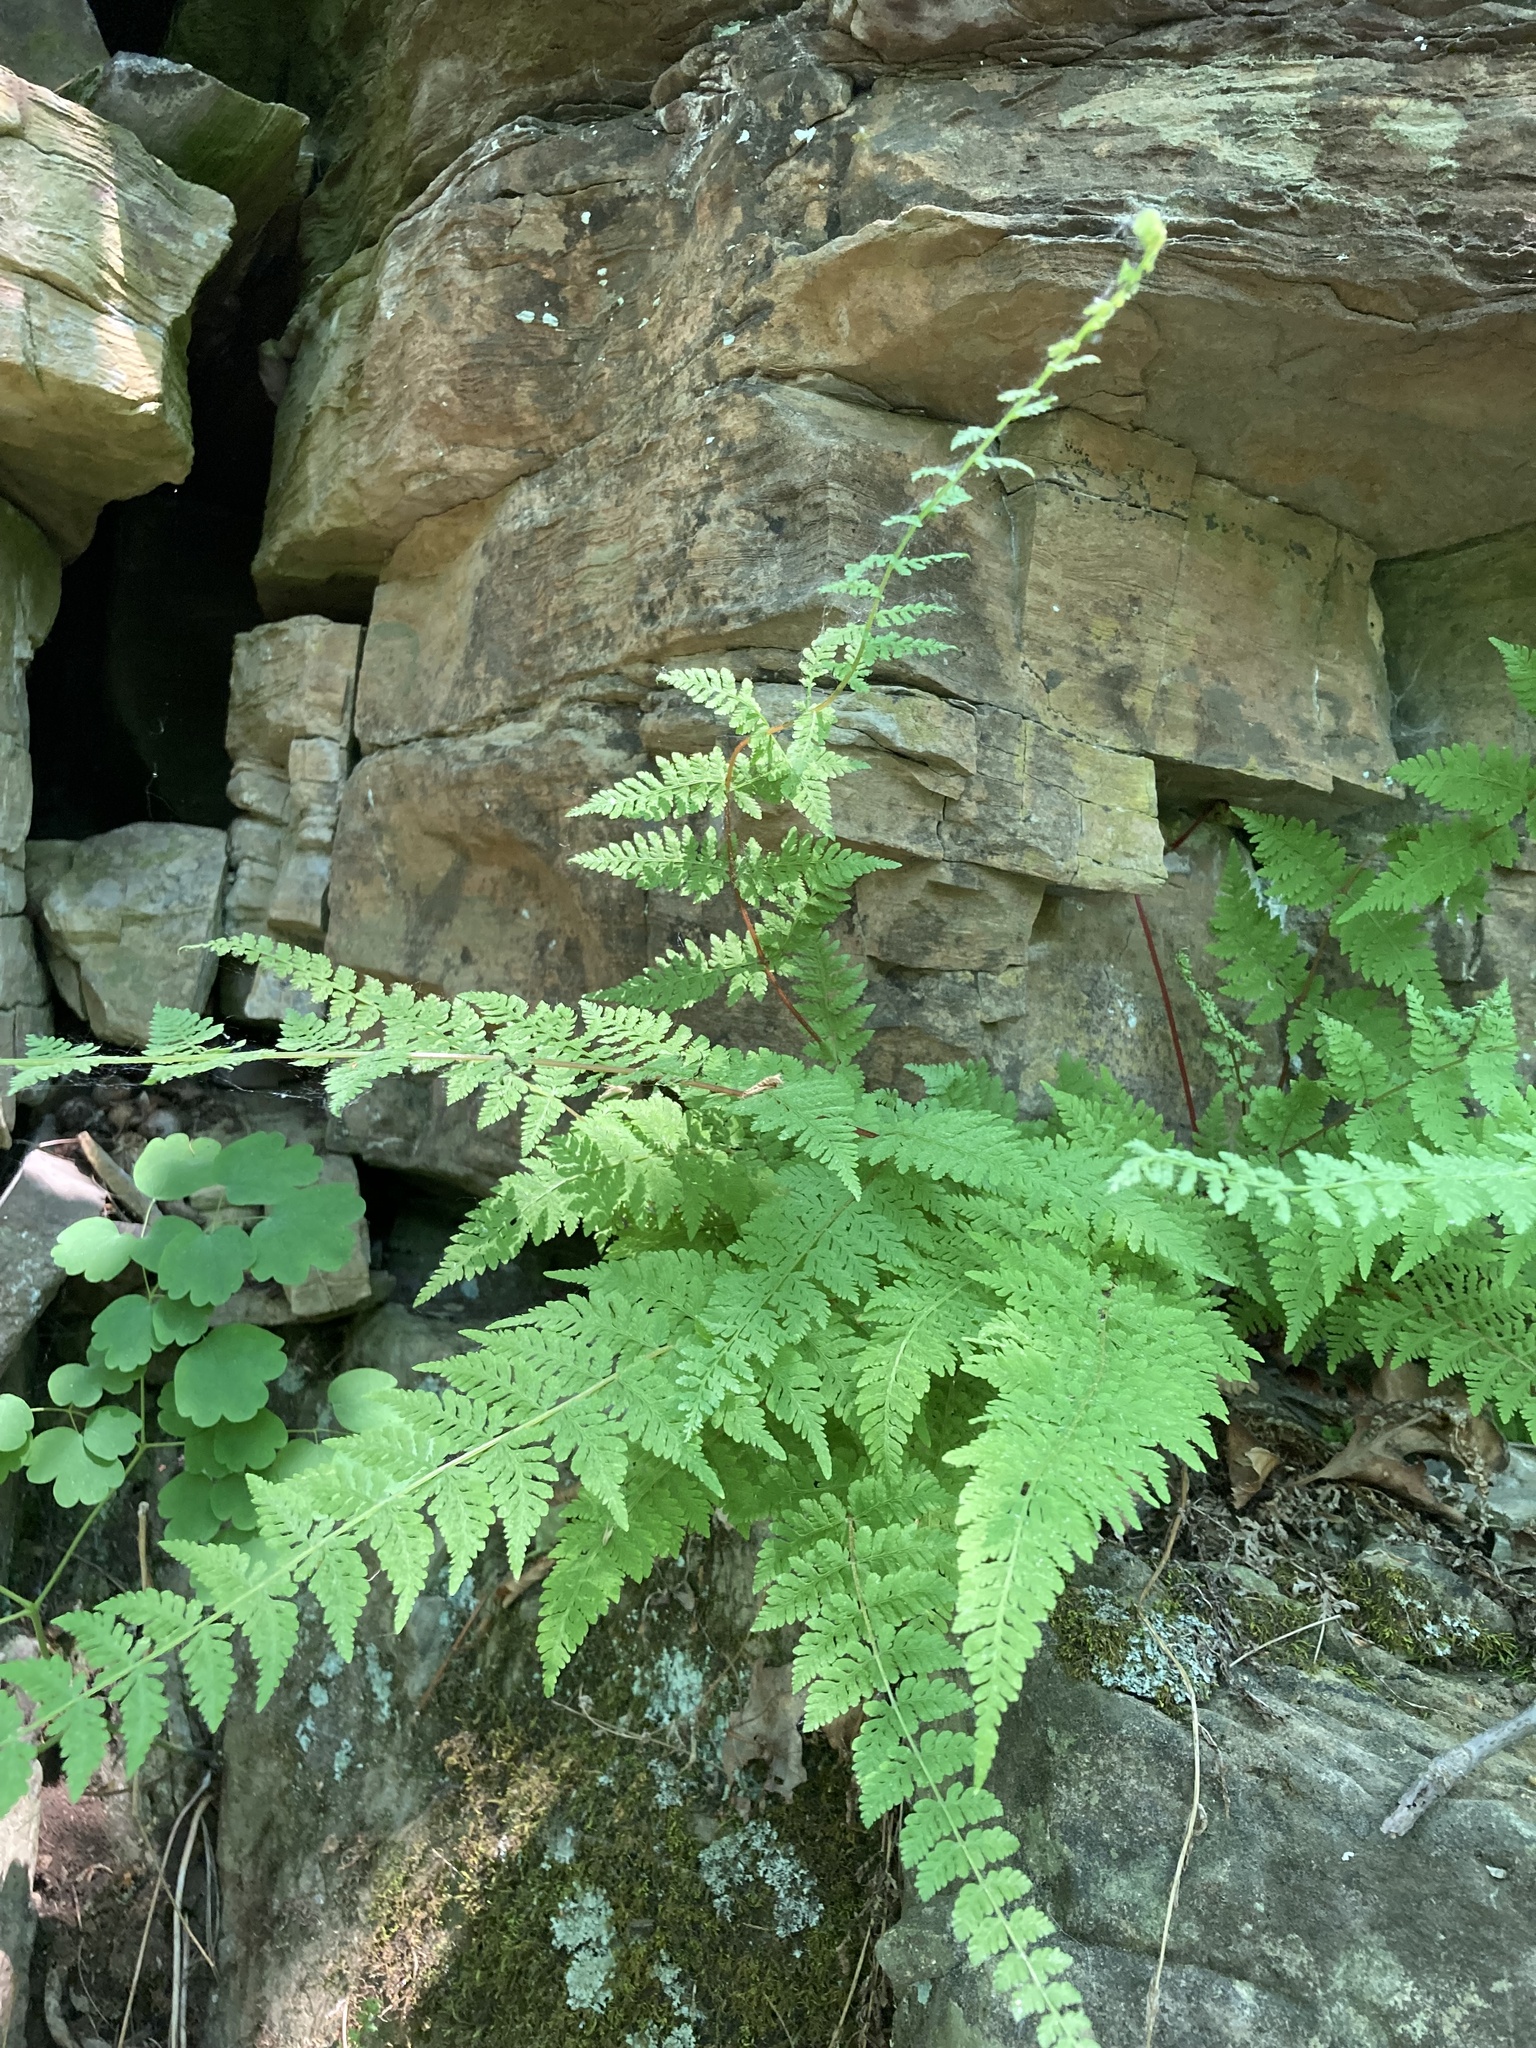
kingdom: Plantae
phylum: Tracheophyta
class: Polypodiopsida
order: Polypodiales
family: Cystopteridaceae
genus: Cystopteris
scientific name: Cystopteris bulbifera
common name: Bulblet bladder fern
